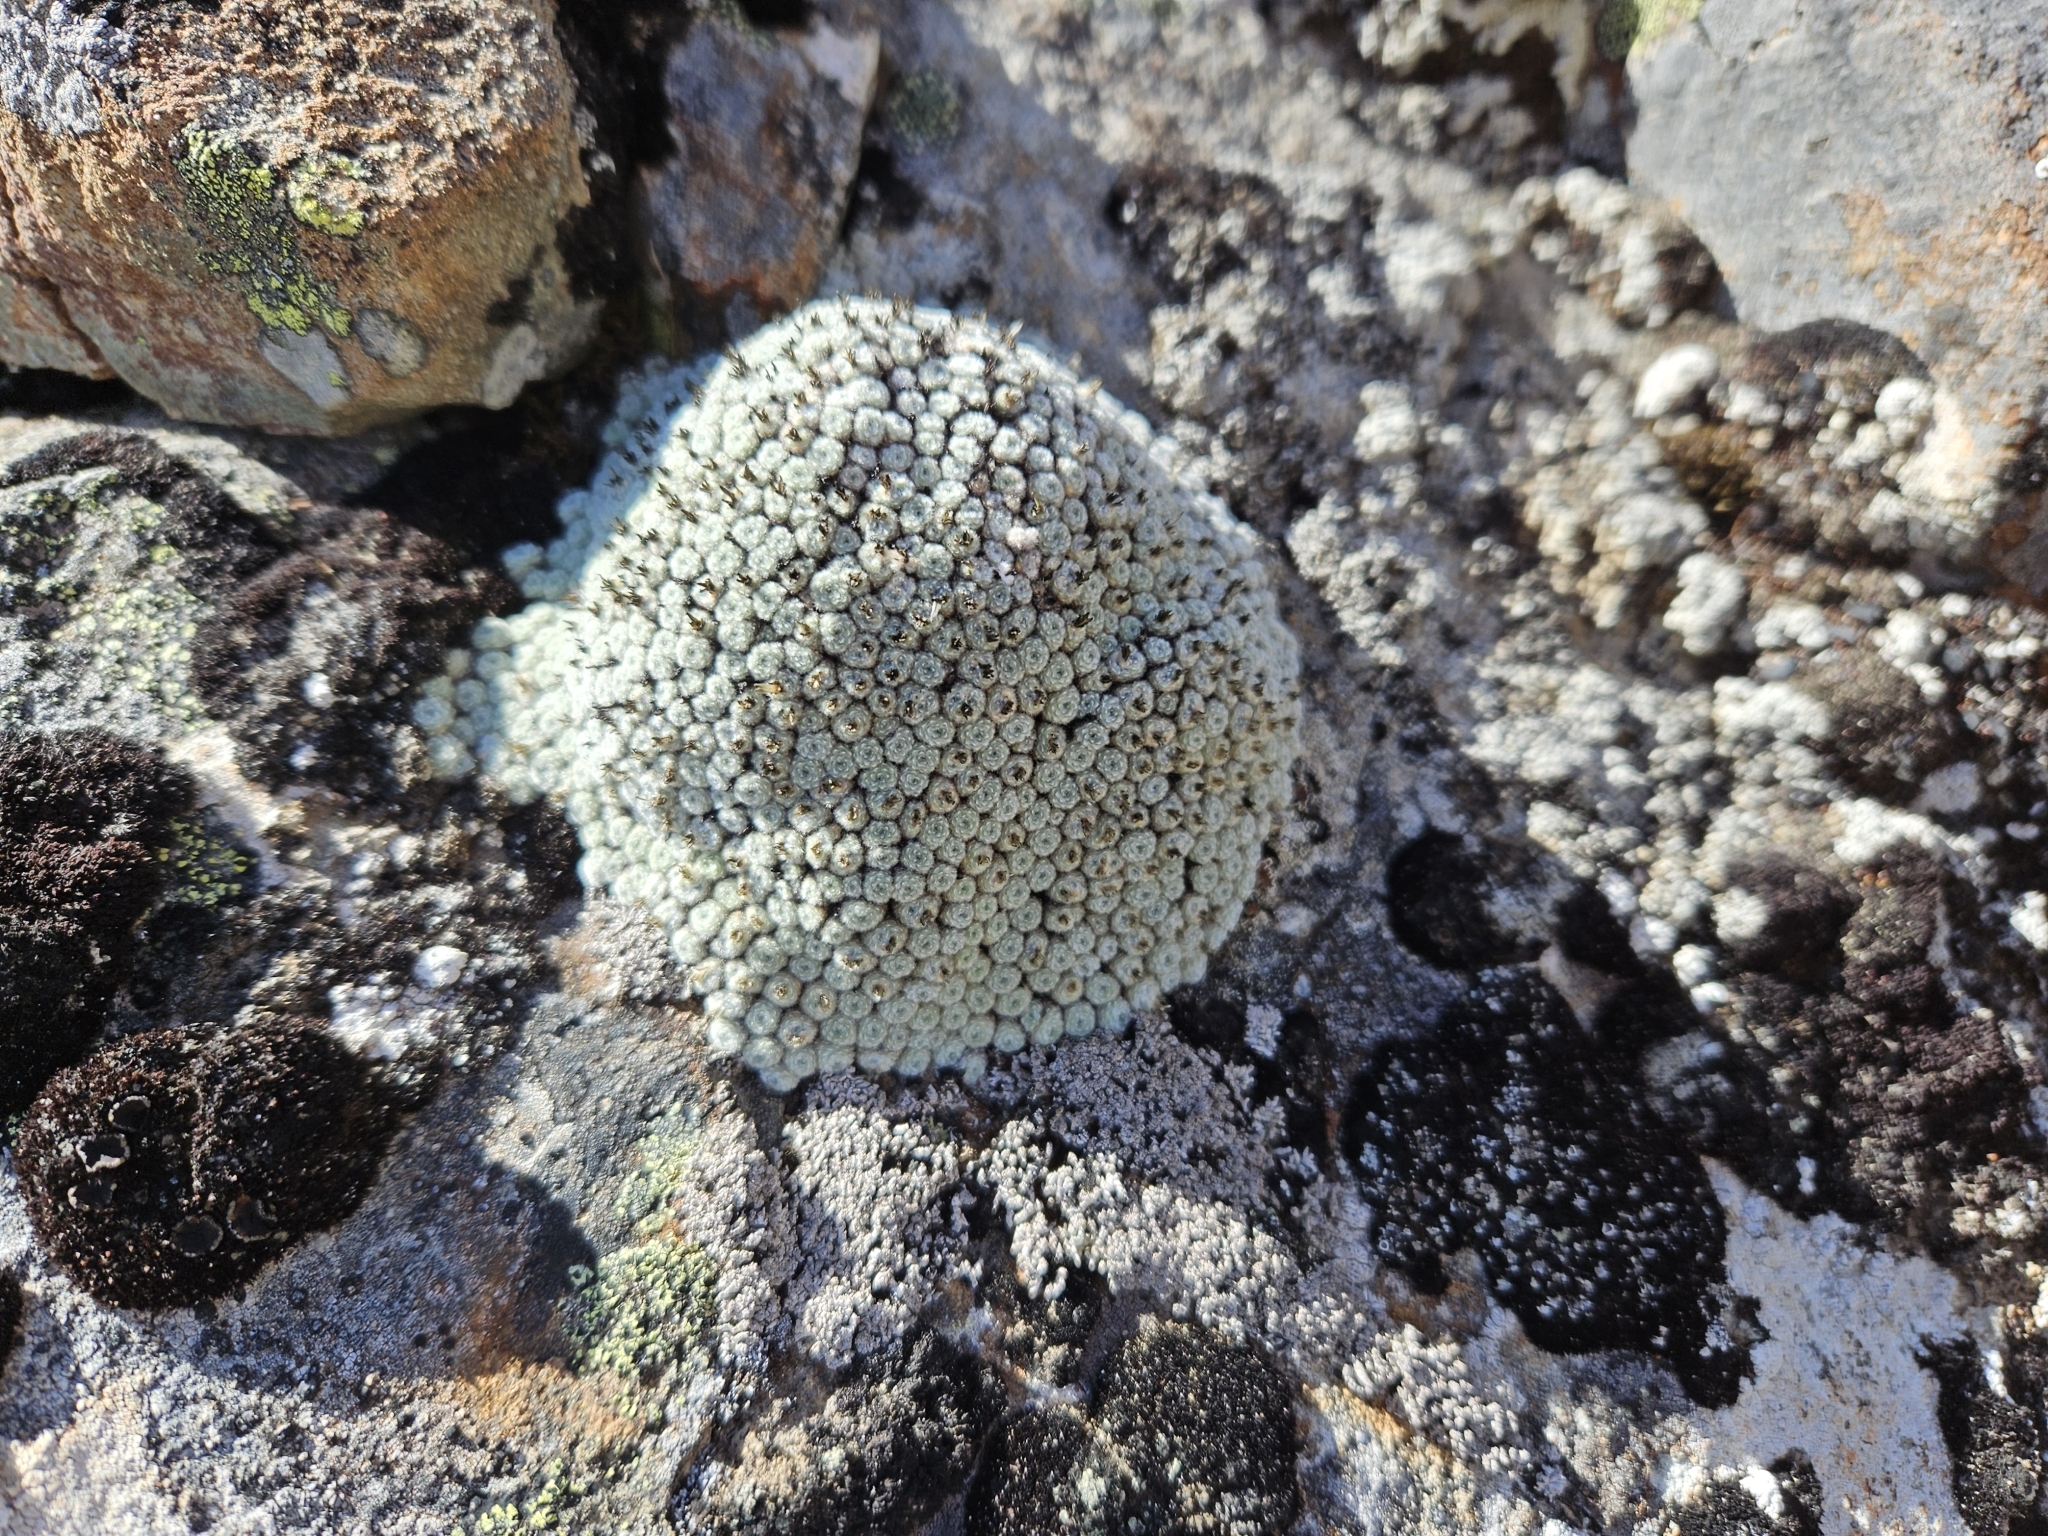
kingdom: Plantae
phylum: Tracheophyta
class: Magnoliopsida
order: Asterales
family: Asteraceae
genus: Raoulia
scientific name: Raoulia mammillaris
